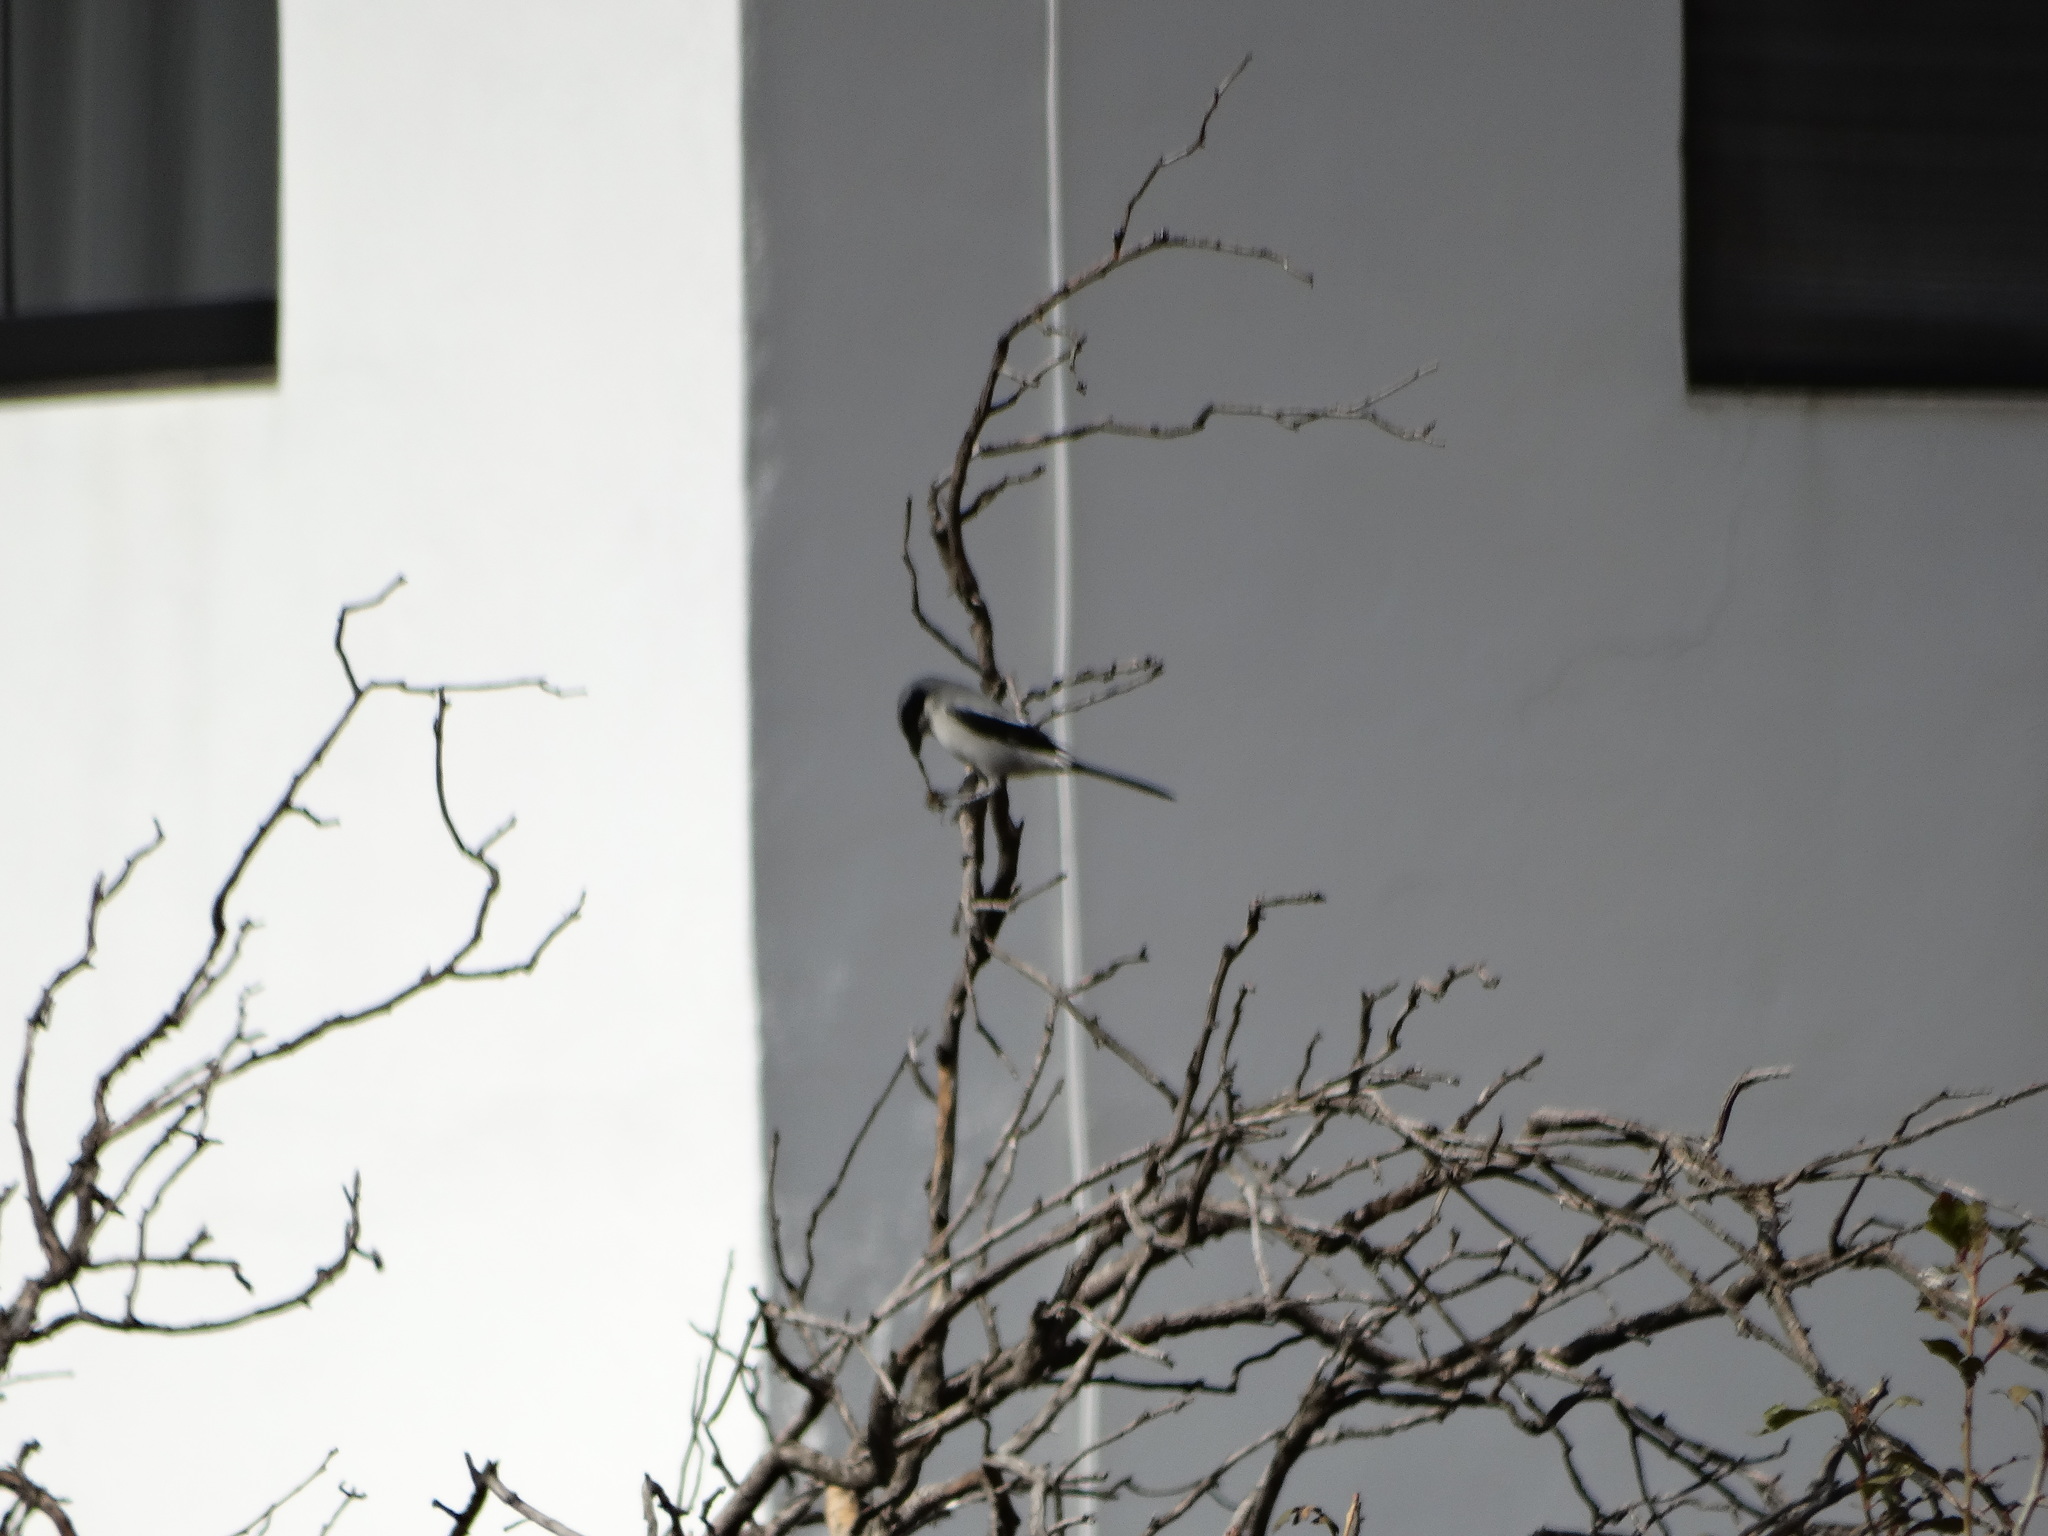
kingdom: Animalia
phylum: Chordata
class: Aves
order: Passeriformes
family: Laniidae
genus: Lanius
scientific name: Lanius ludovicianus
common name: Loggerhead shrike
